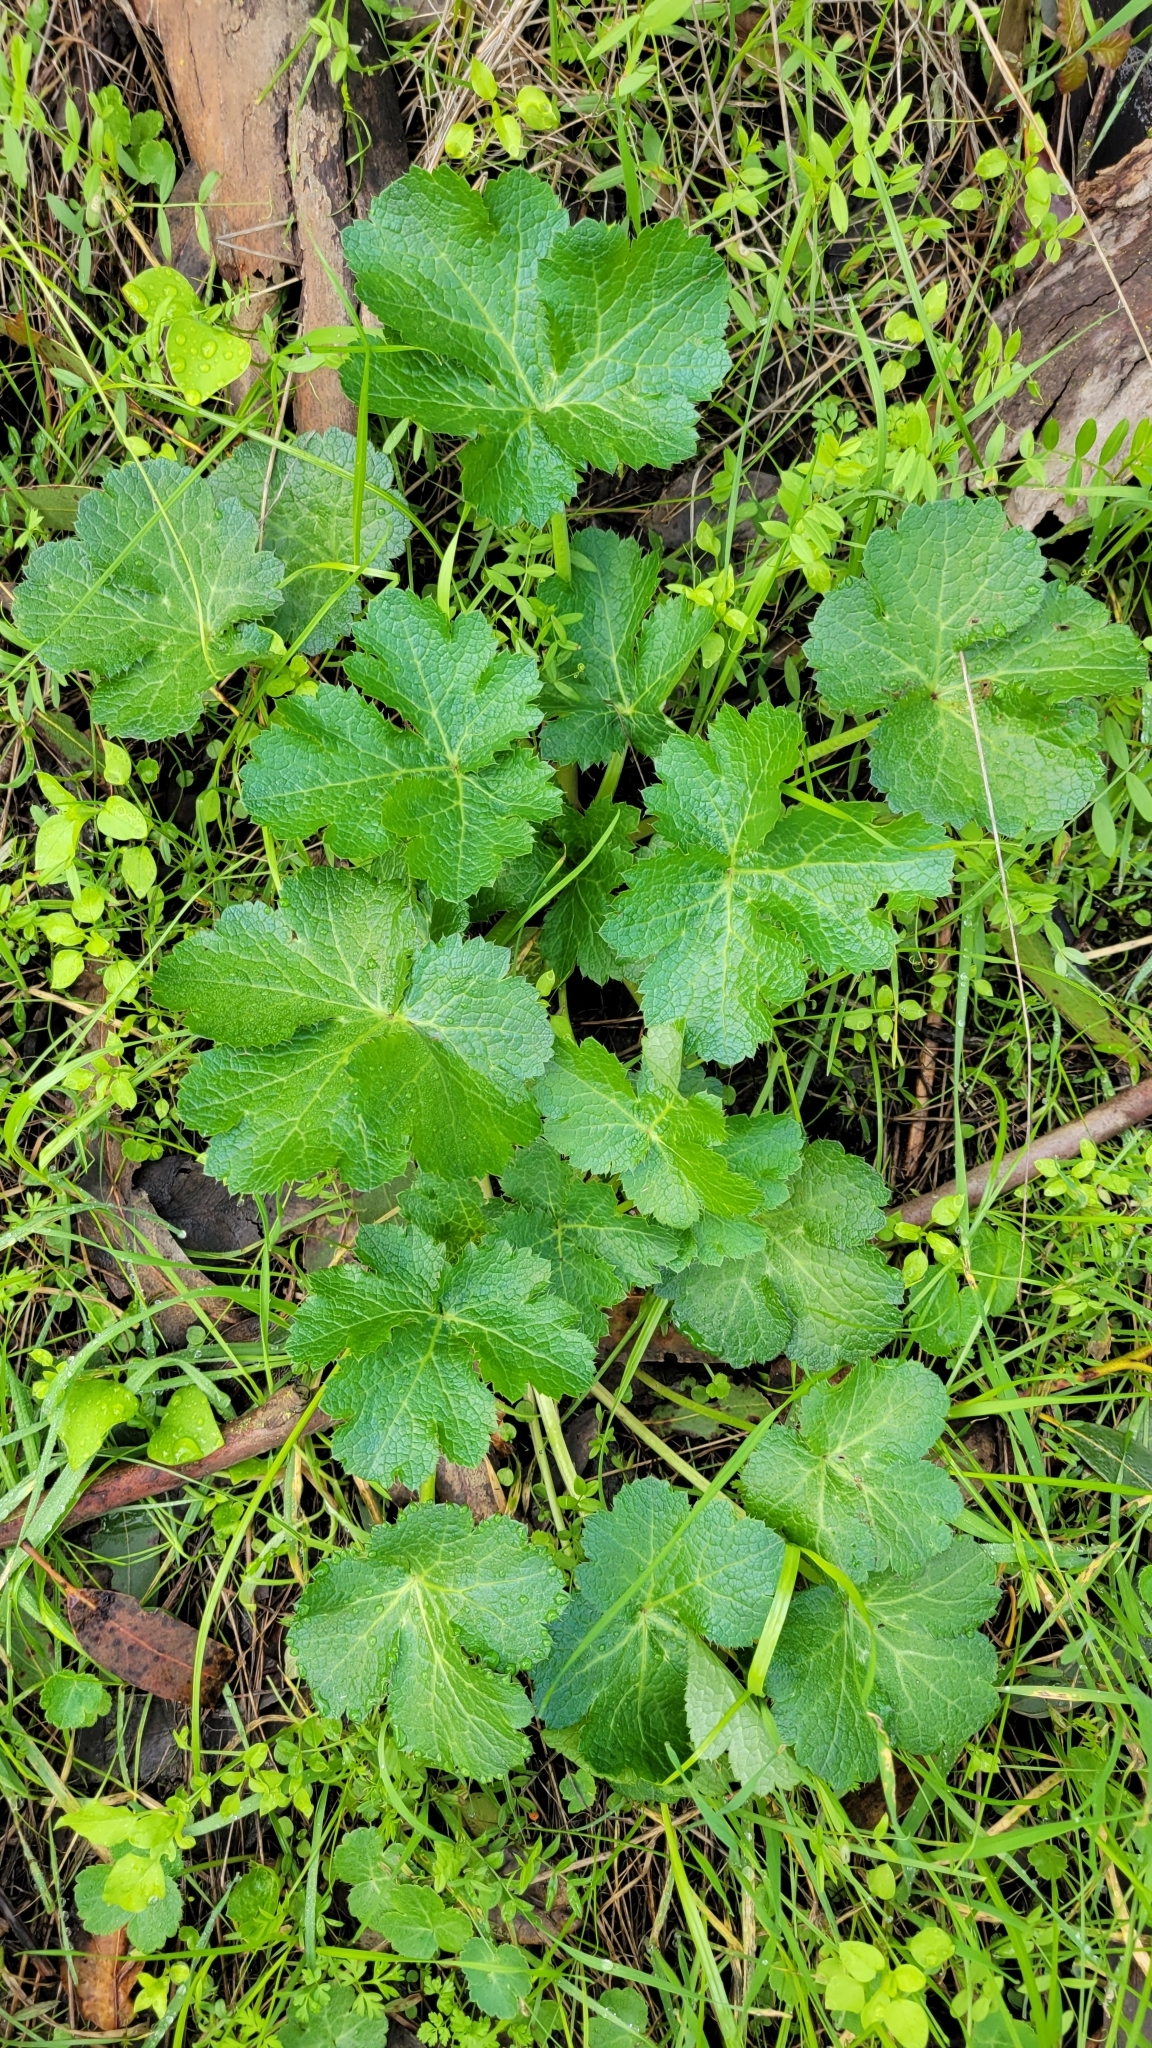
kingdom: Plantae
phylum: Tracheophyta
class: Magnoliopsida
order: Apiales
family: Apiaceae
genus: Sanicula
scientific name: Sanicula crassicaulis
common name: Western snakeroot
